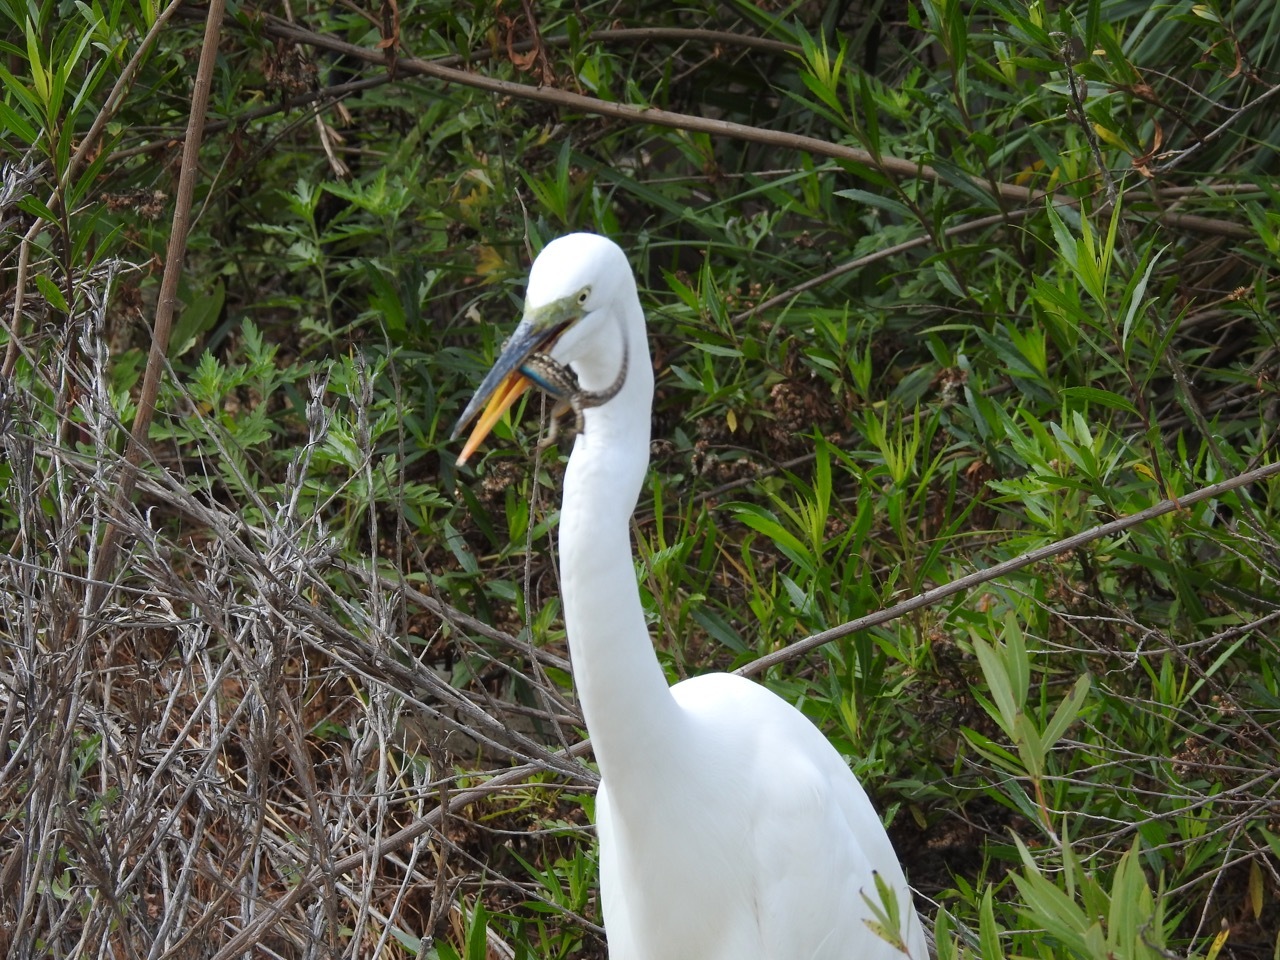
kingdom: Animalia
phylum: Chordata
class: Squamata
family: Phrynosomatidae
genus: Sceloporus
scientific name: Sceloporus occidentalis
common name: Western fence lizard
